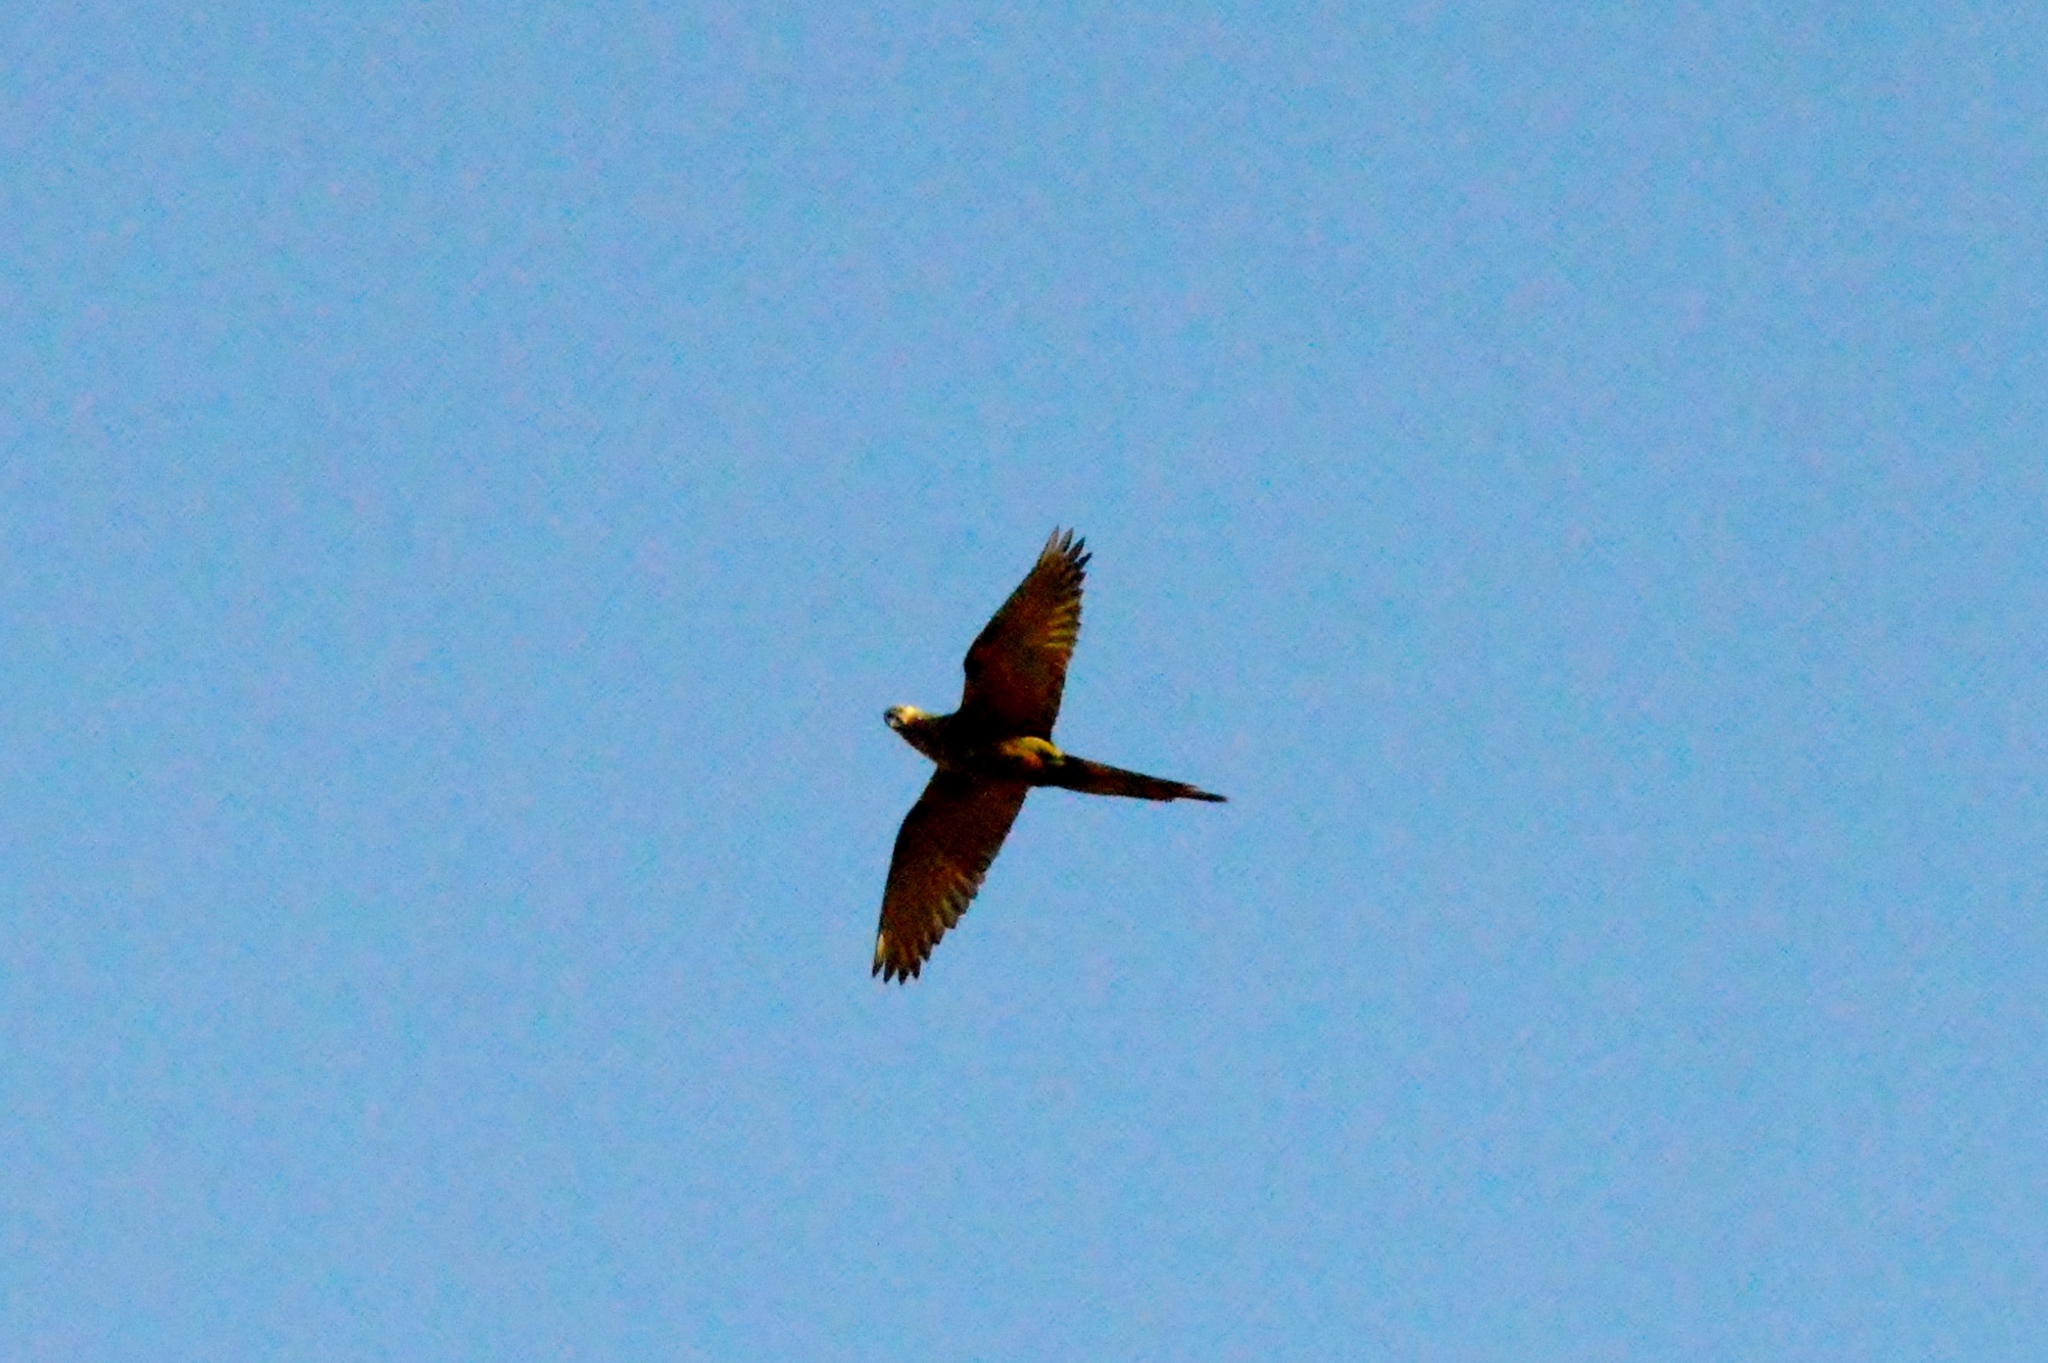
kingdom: Animalia
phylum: Chordata
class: Aves
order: Psittaciformes
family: Psittacidae
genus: Orthopsittaca
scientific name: Orthopsittaca manilata
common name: Red-bellied macaw
